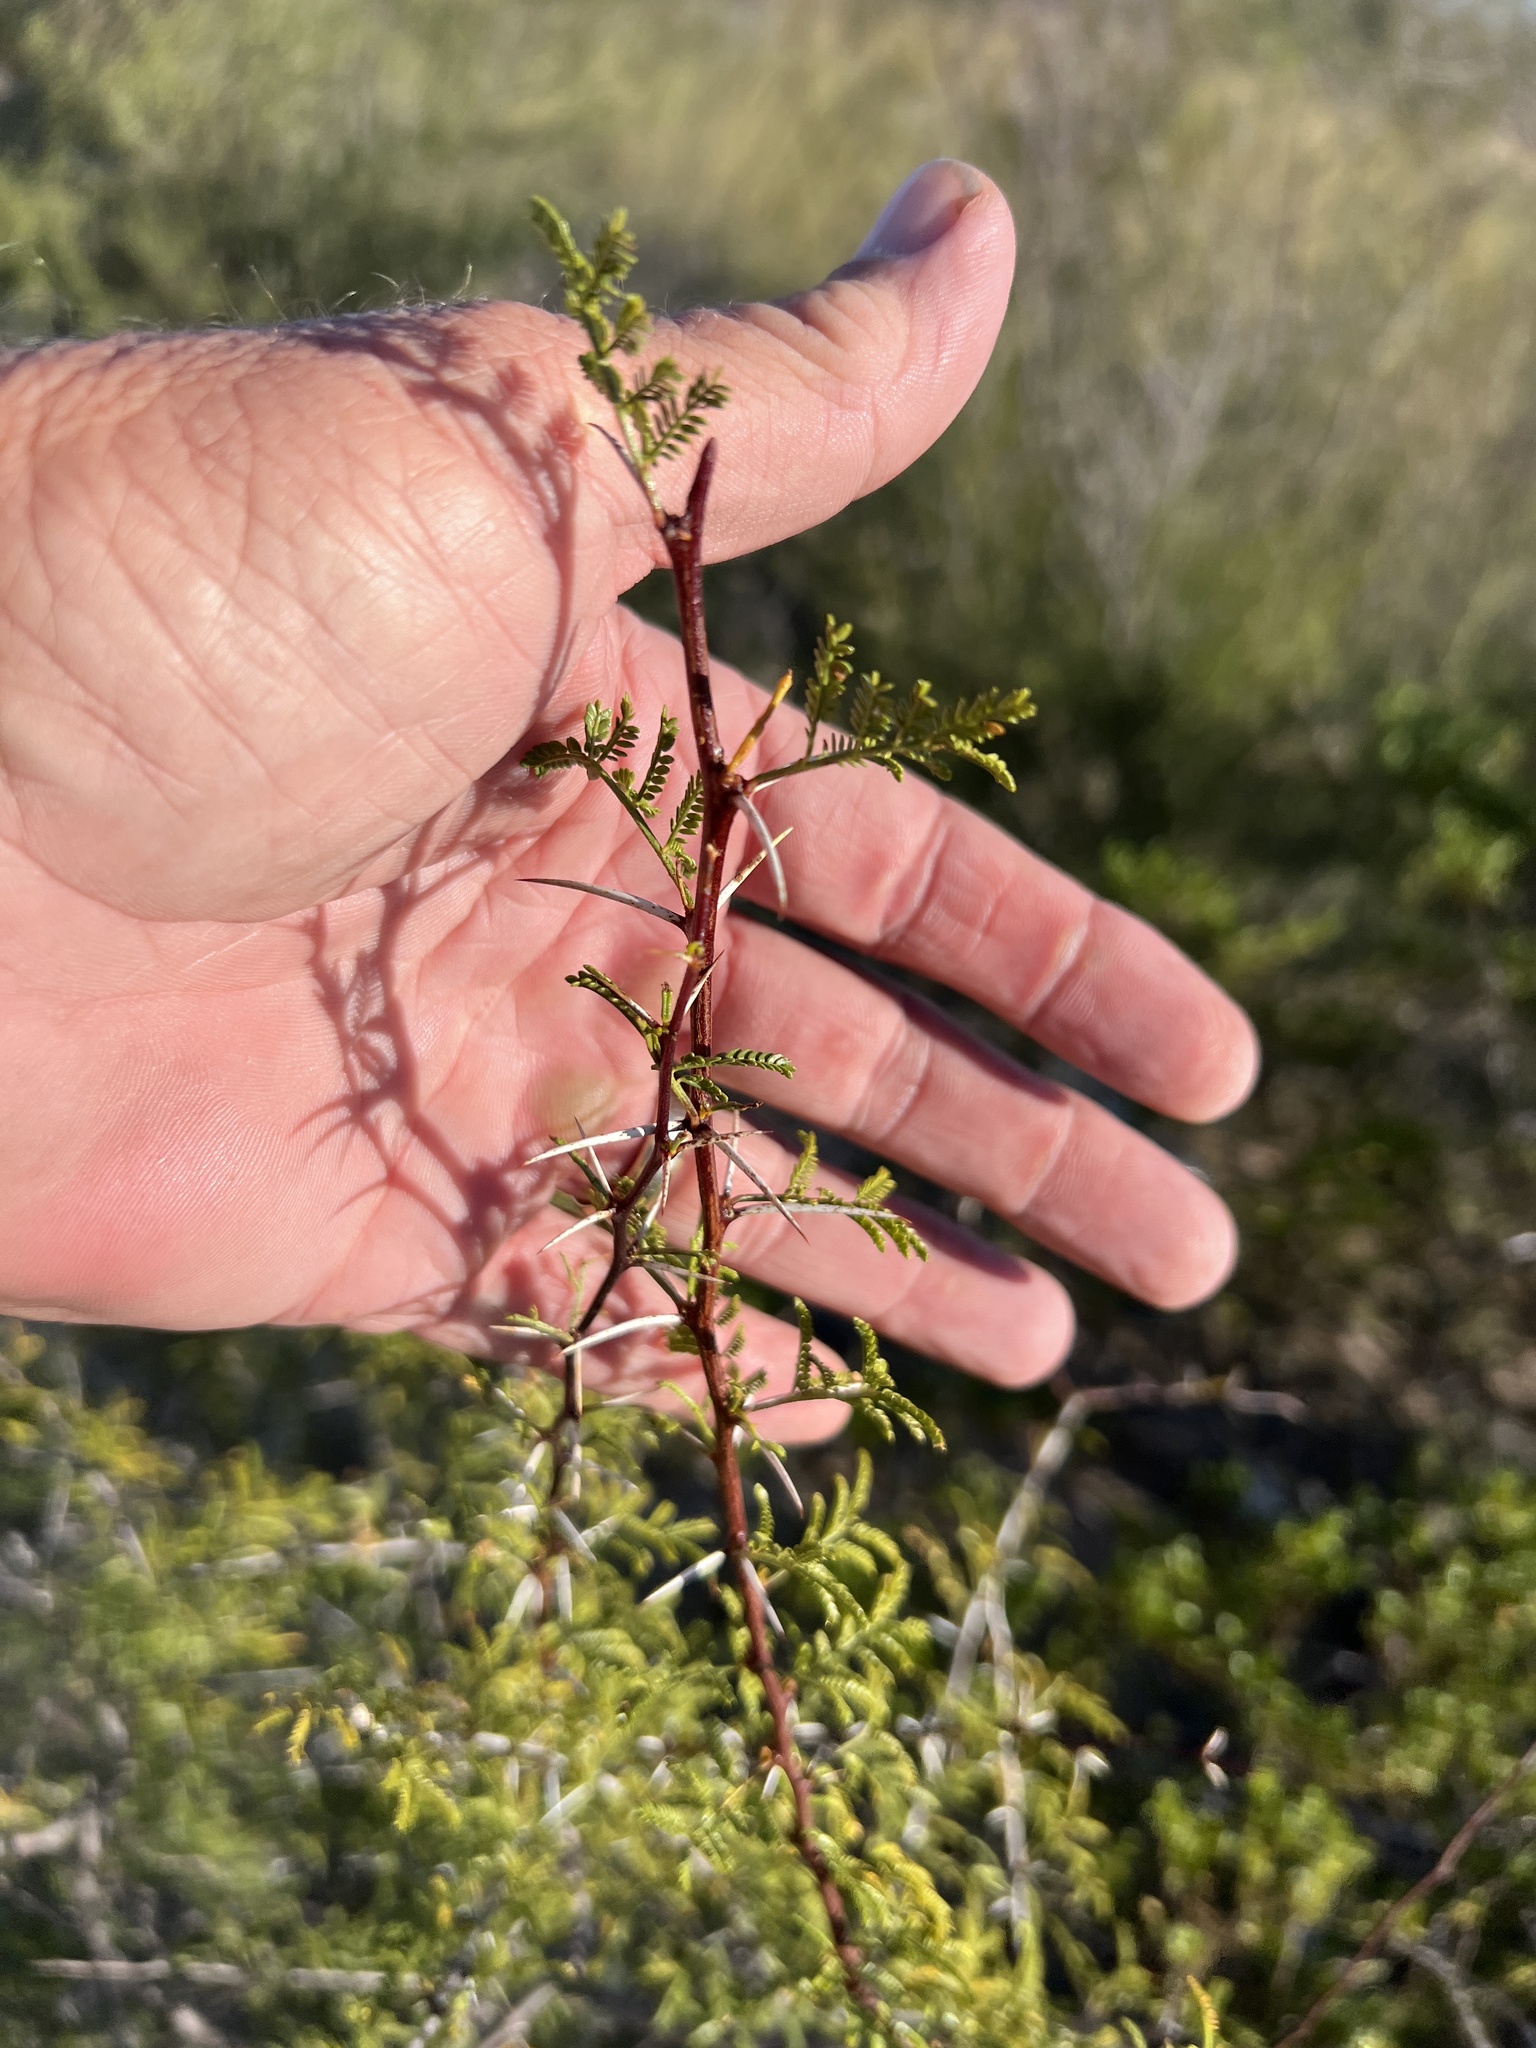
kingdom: Plantae
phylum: Tracheophyta
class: Magnoliopsida
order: Fabales
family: Fabaceae
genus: Vachellia
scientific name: Vachellia vernicosa
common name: Viscid acacia
